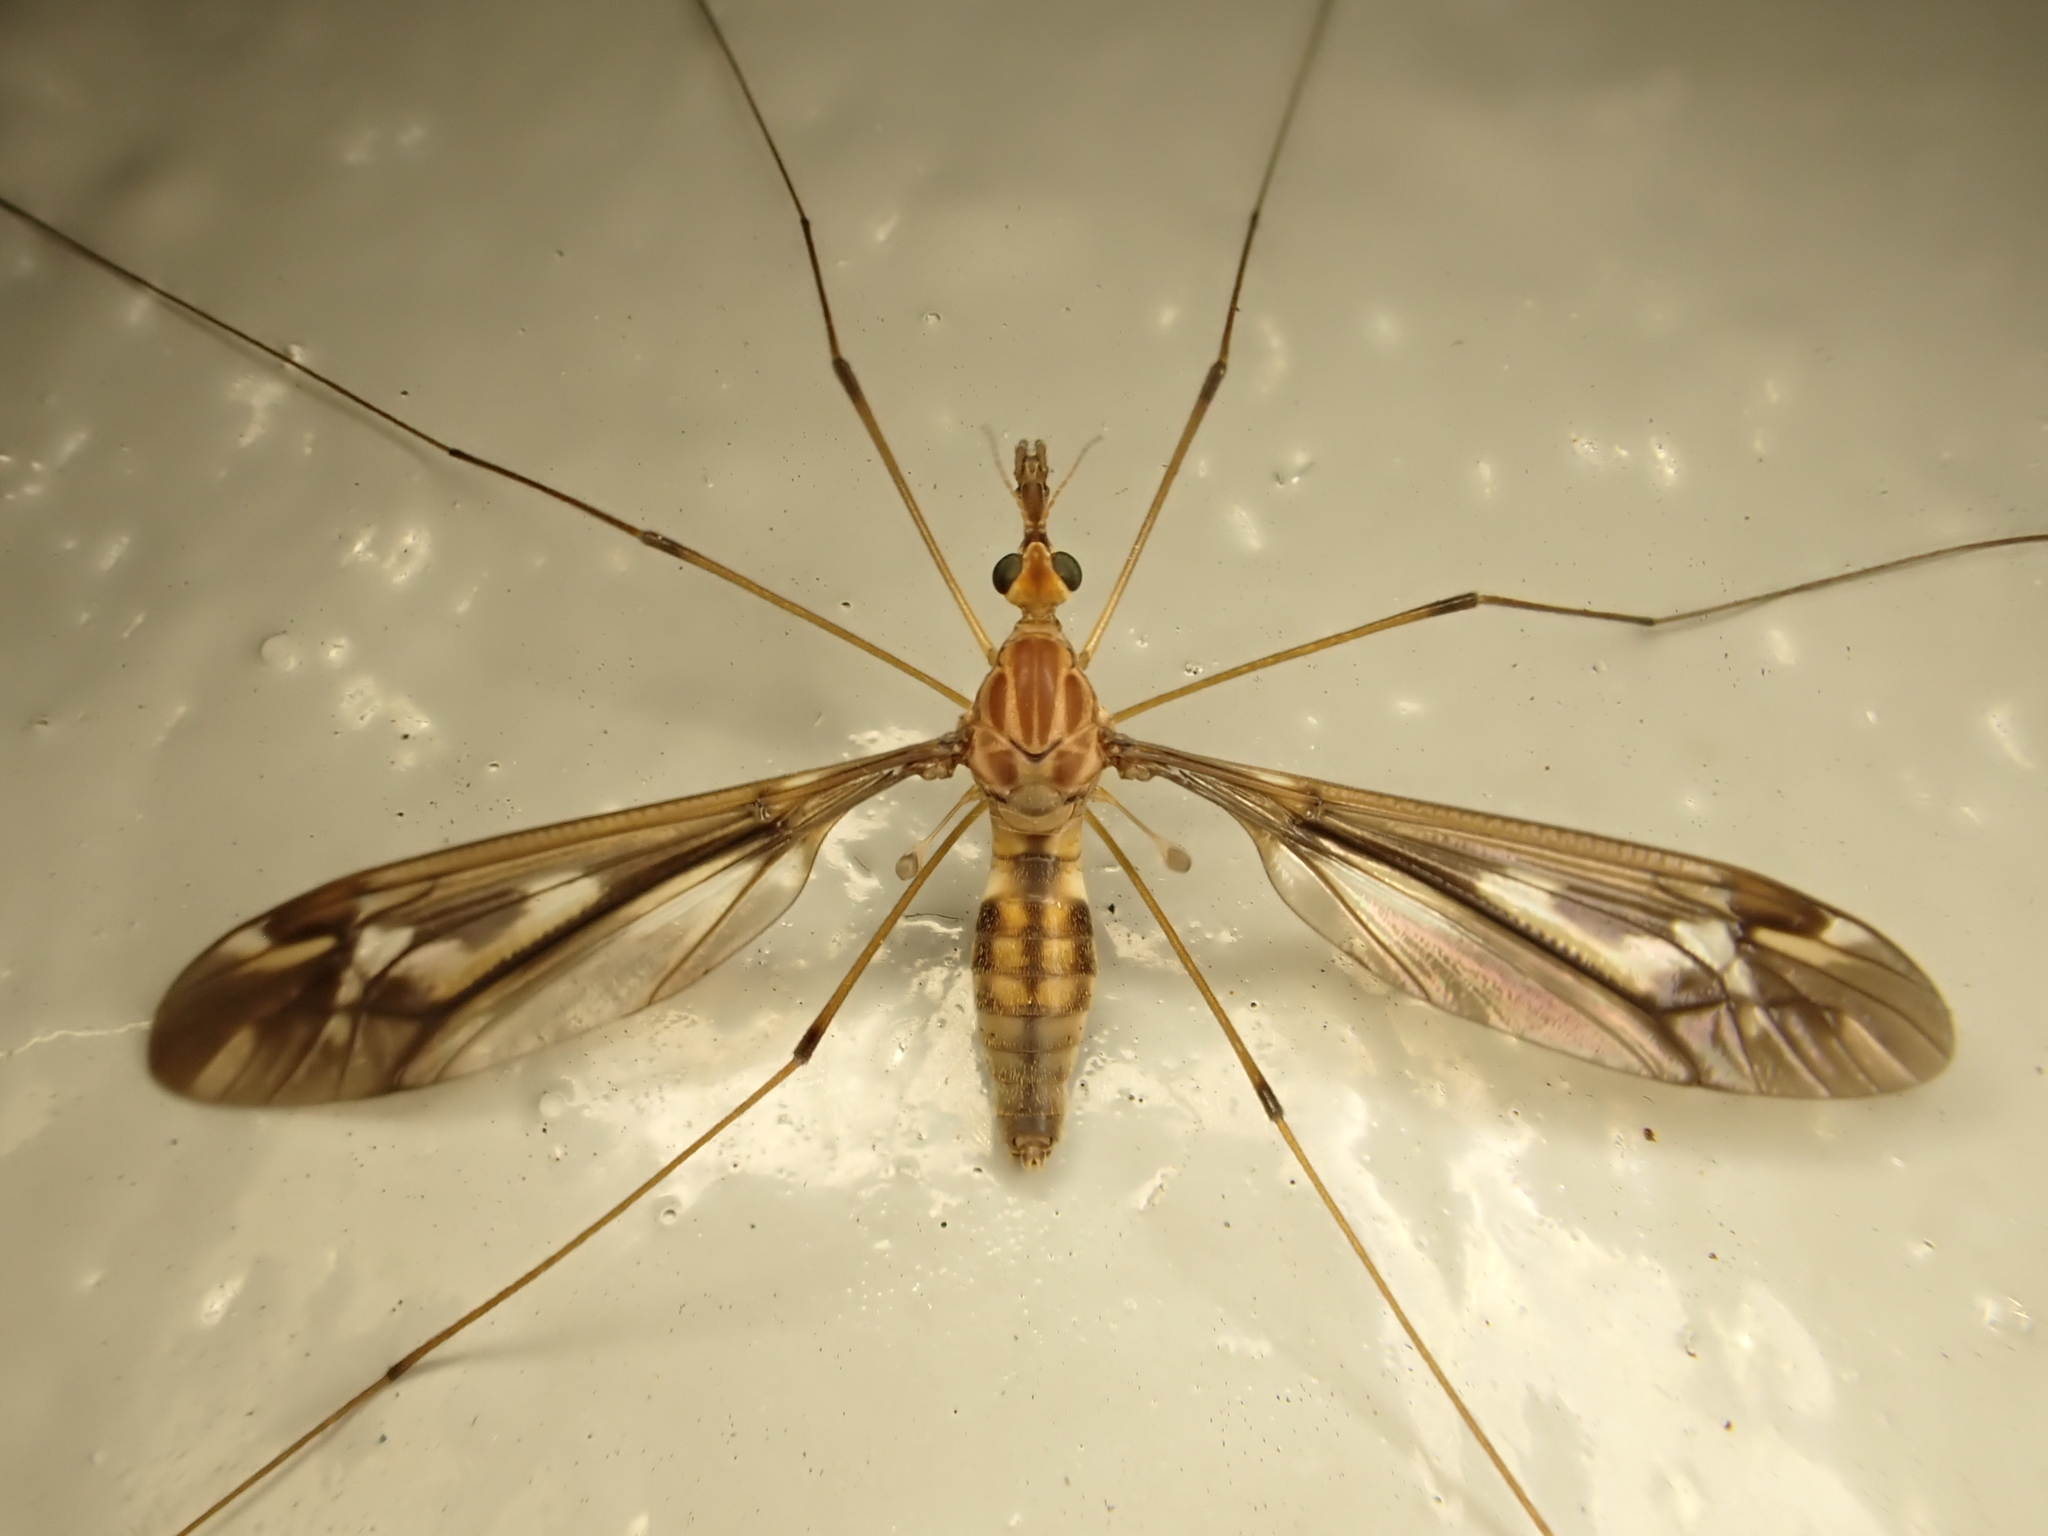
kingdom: Animalia
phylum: Arthropoda
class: Insecta
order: Diptera
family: Tipulidae
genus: Leptotarsus
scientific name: Leptotarsus huttoni
